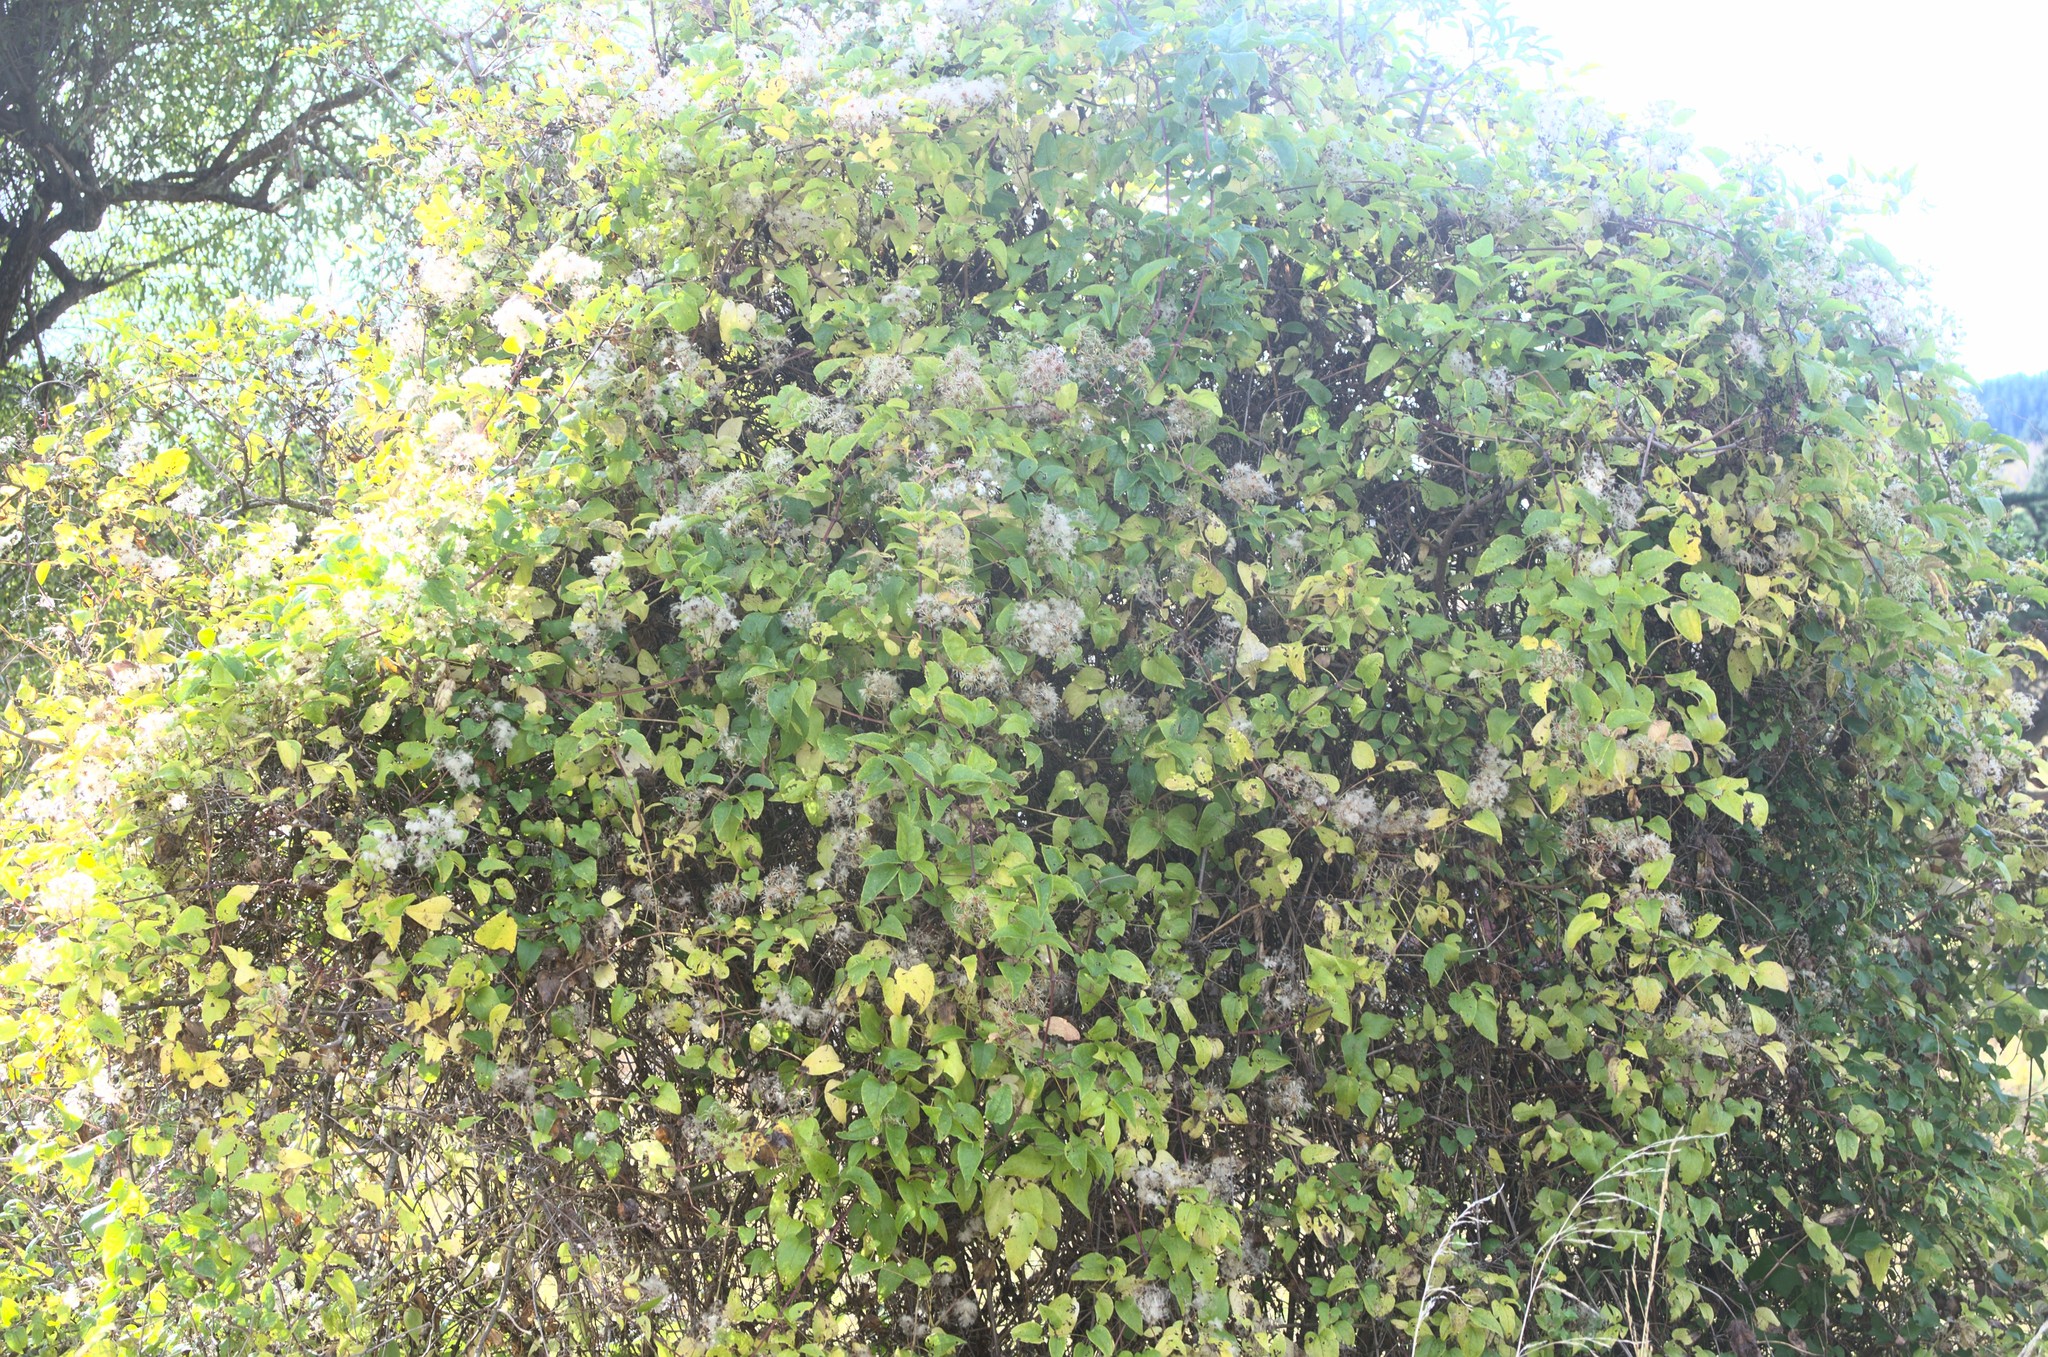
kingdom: Plantae
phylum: Tracheophyta
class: Magnoliopsida
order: Ranunculales
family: Ranunculaceae
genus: Clematis
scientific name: Clematis vitalba
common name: Evergreen clematis
